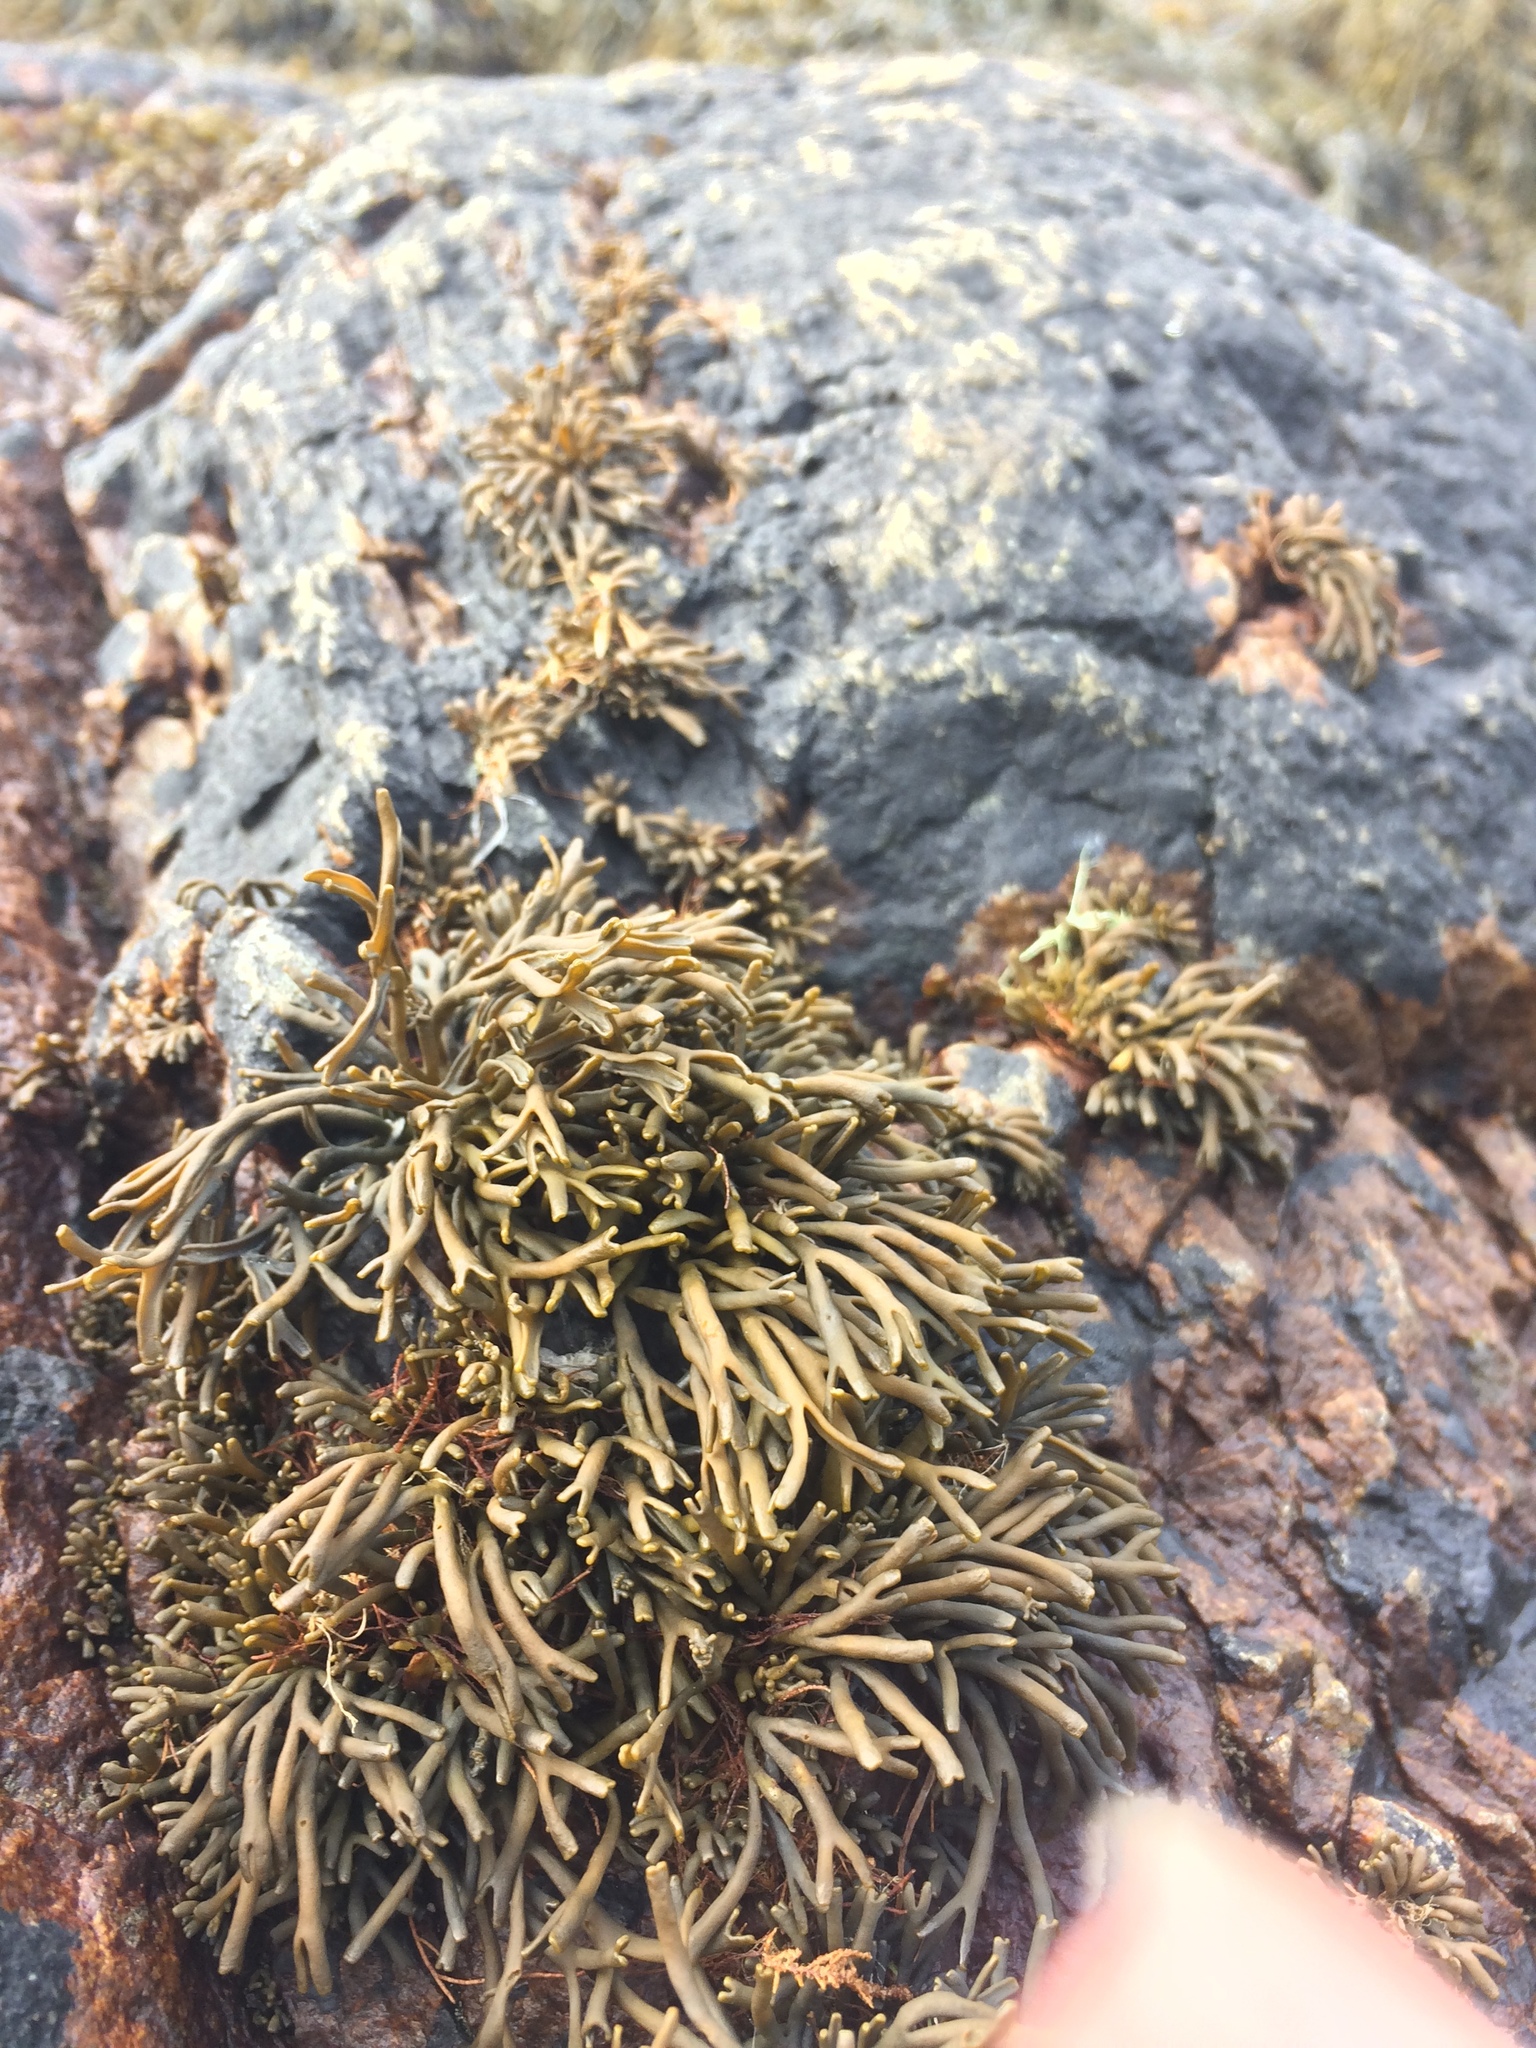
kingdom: Chromista
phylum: Ochrophyta
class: Phaeophyceae
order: Fucales
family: Fucaceae
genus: Pelvetia
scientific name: Pelvetia canaliculata
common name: Channelled wrack
